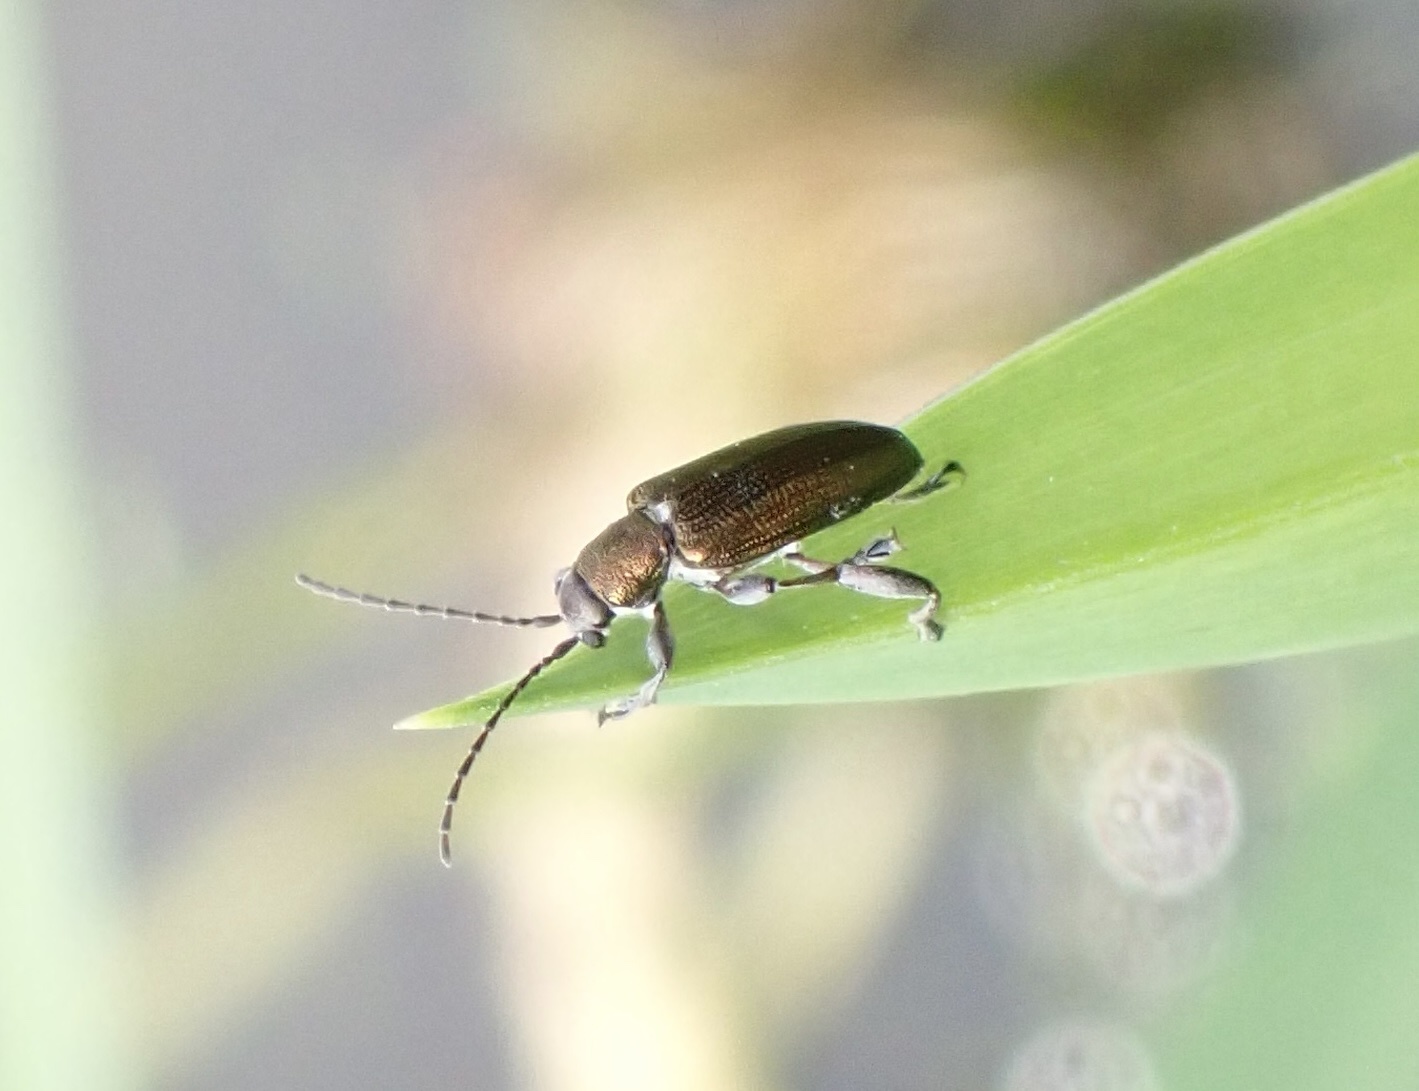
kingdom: Animalia
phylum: Arthropoda
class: Insecta
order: Coleoptera
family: Chrysomelidae
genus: Donacia
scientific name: Donacia semicuprea
